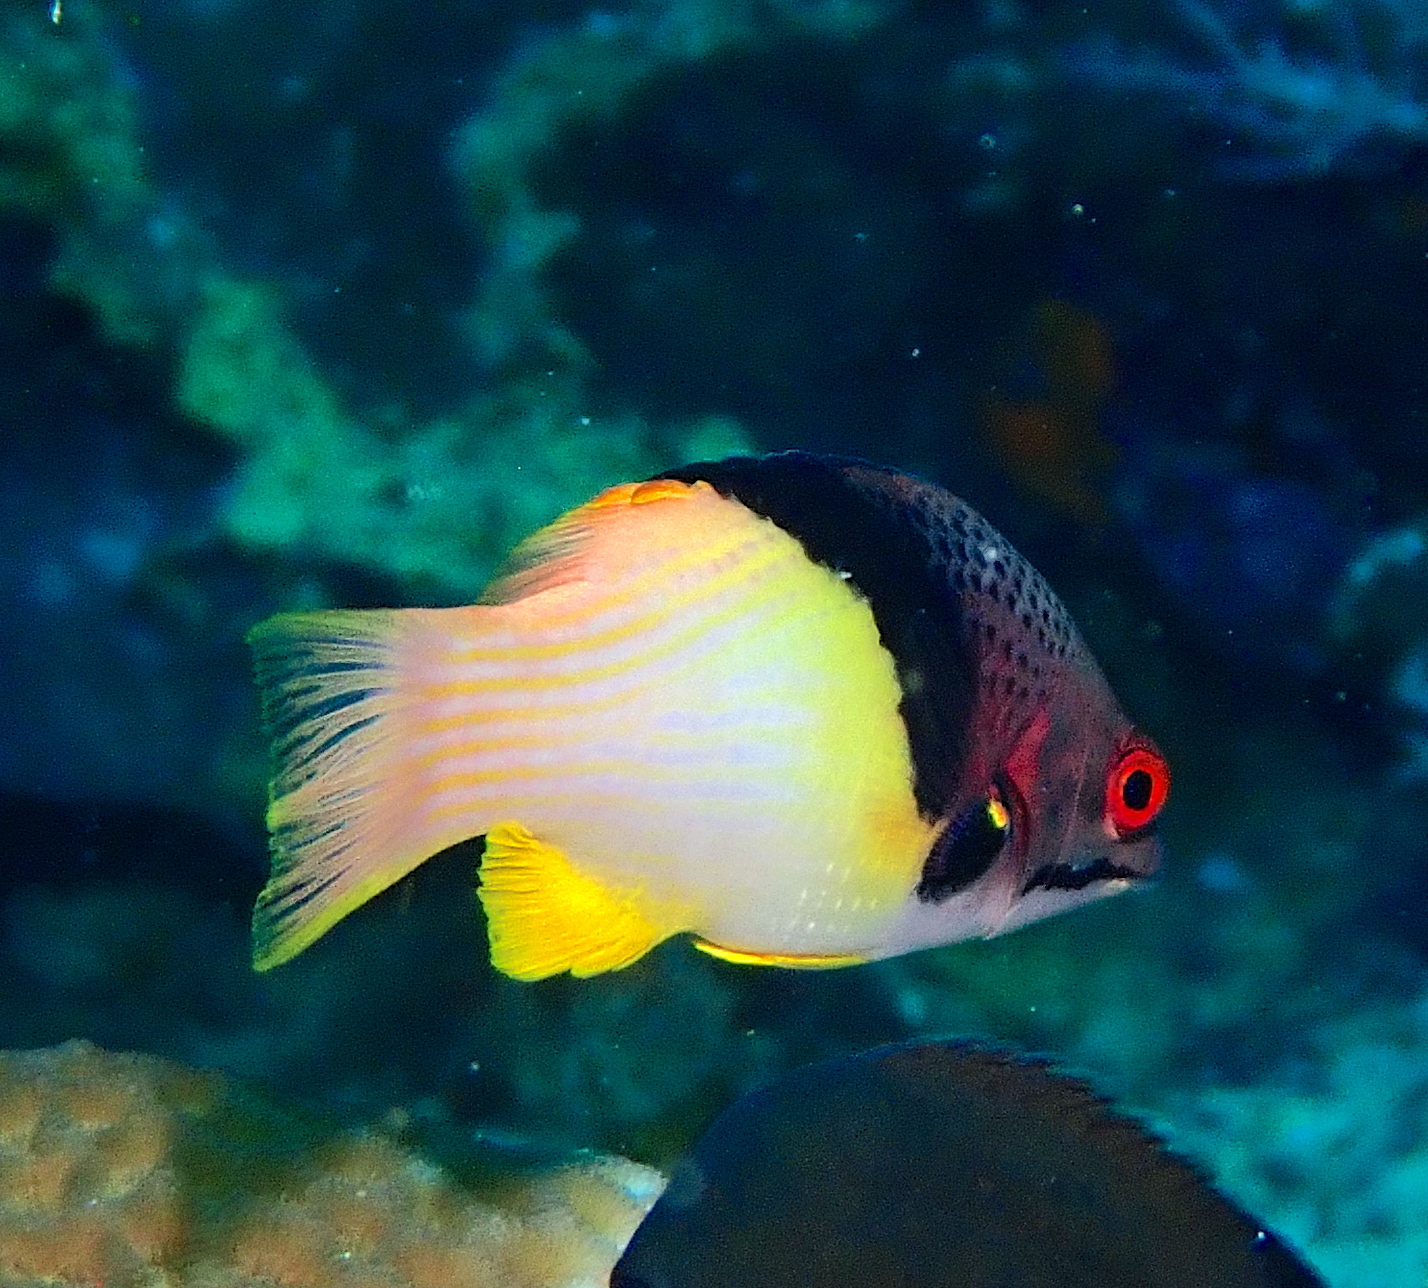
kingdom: Animalia
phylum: Chordata
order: Perciformes
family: Labridae
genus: Bodianus
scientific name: Bodianus mesothorax
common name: Coral hogfish
